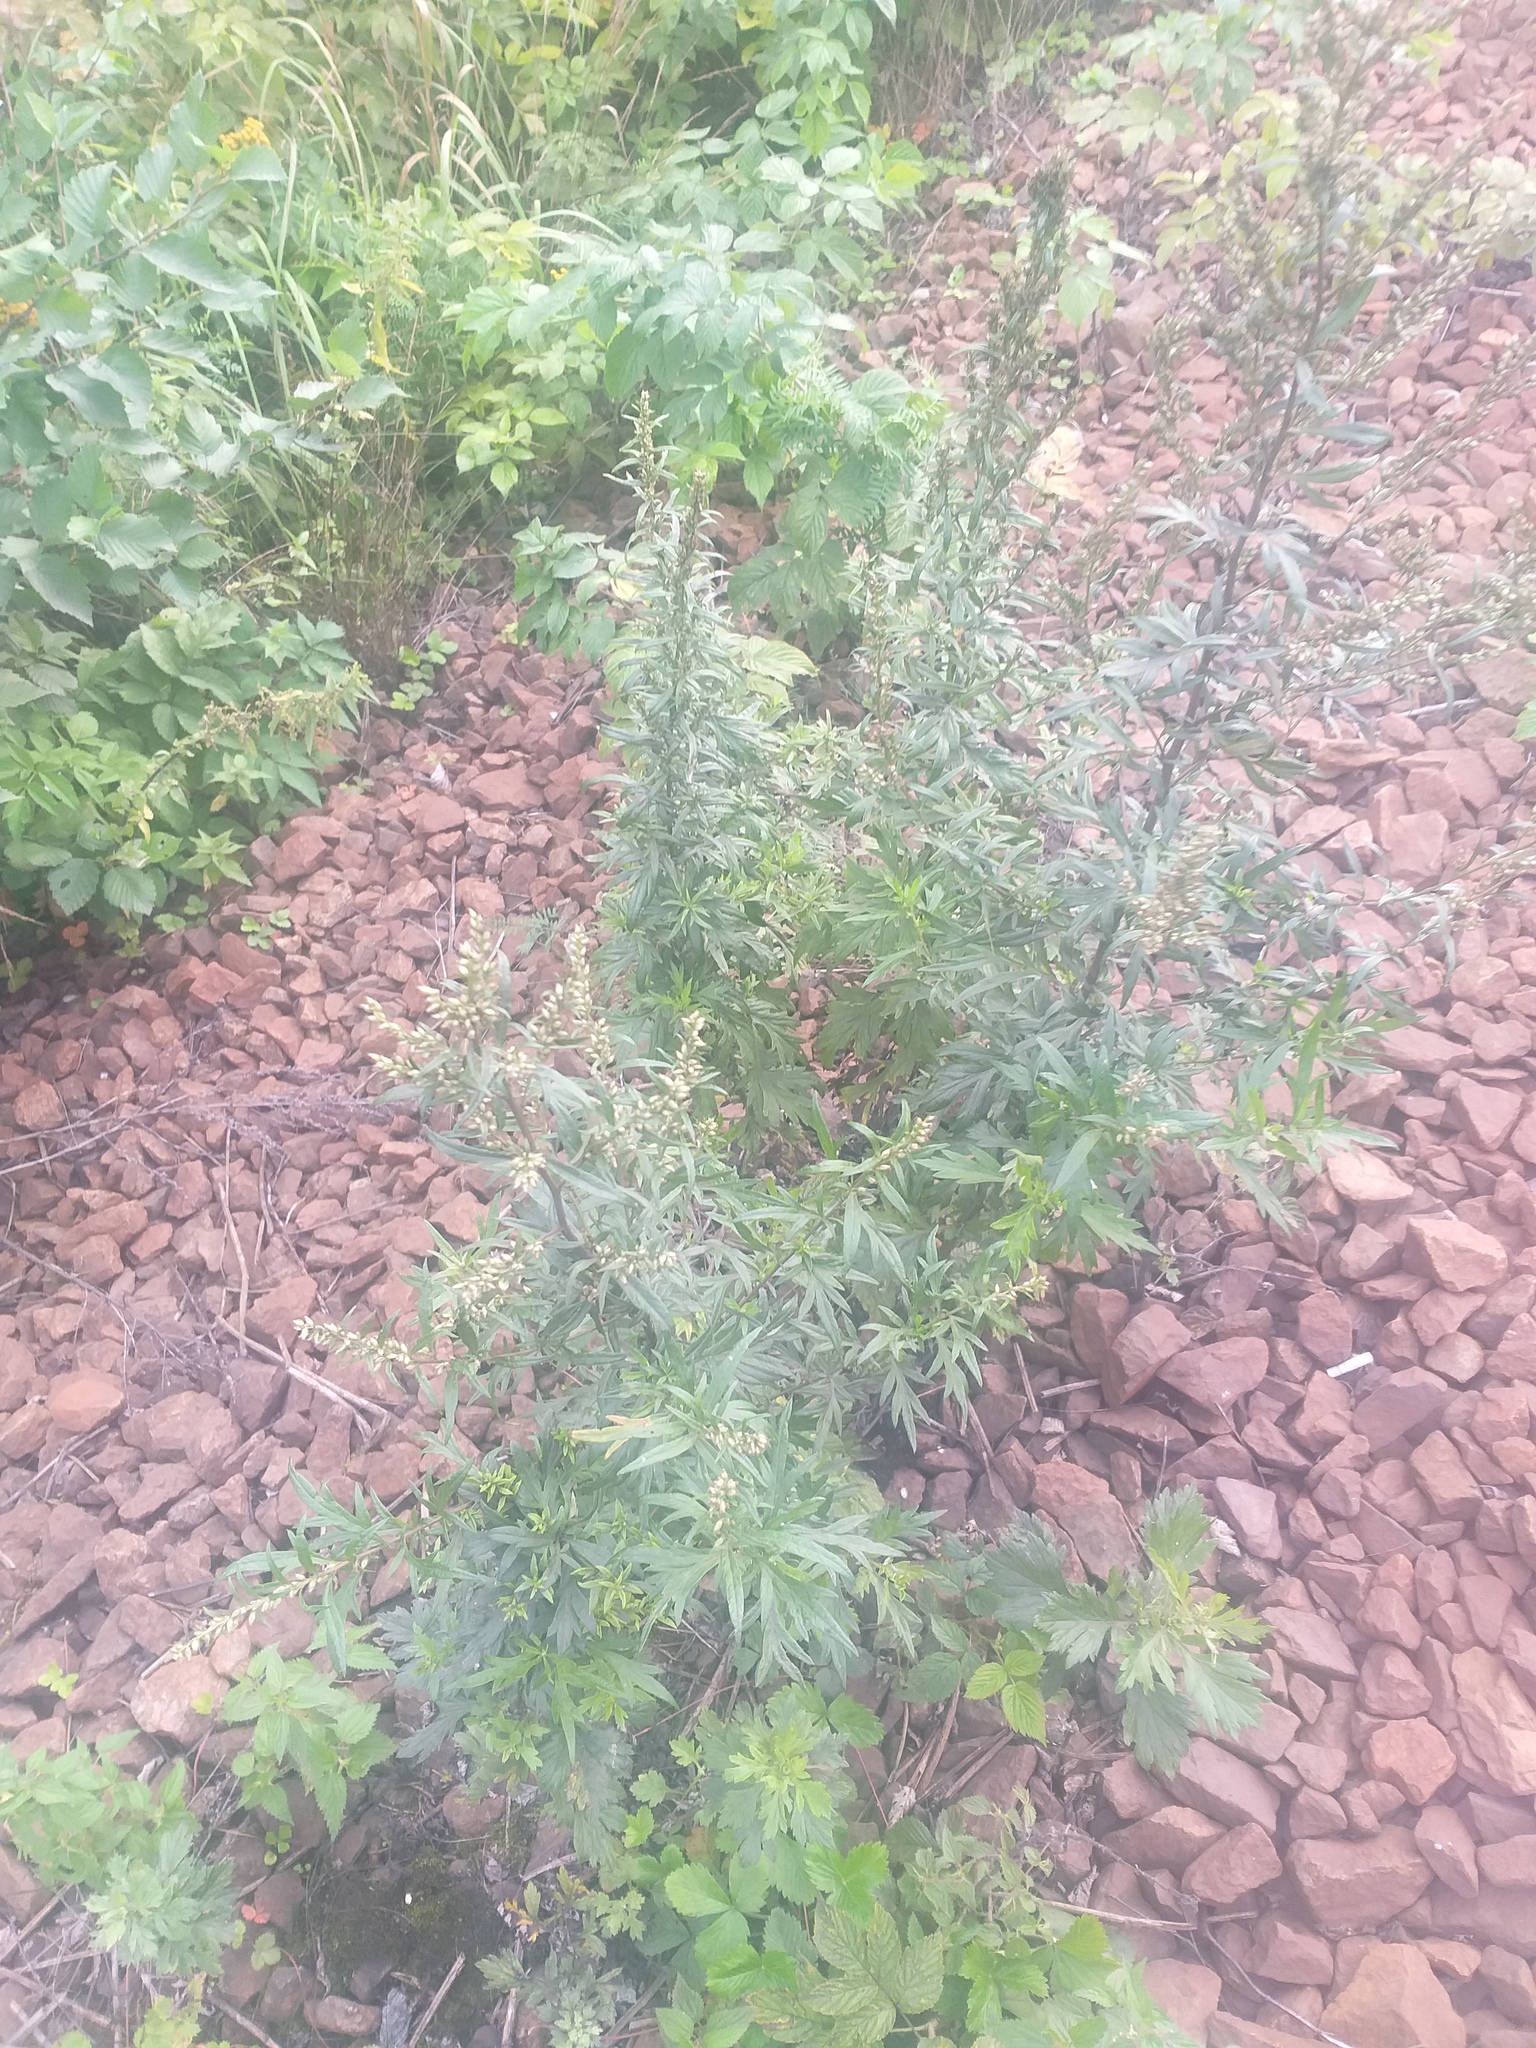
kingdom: Plantae
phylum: Tracheophyta
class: Magnoliopsida
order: Asterales
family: Asteraceae
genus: Artemisia
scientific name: Artemisia vulgaris
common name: Mugwort
